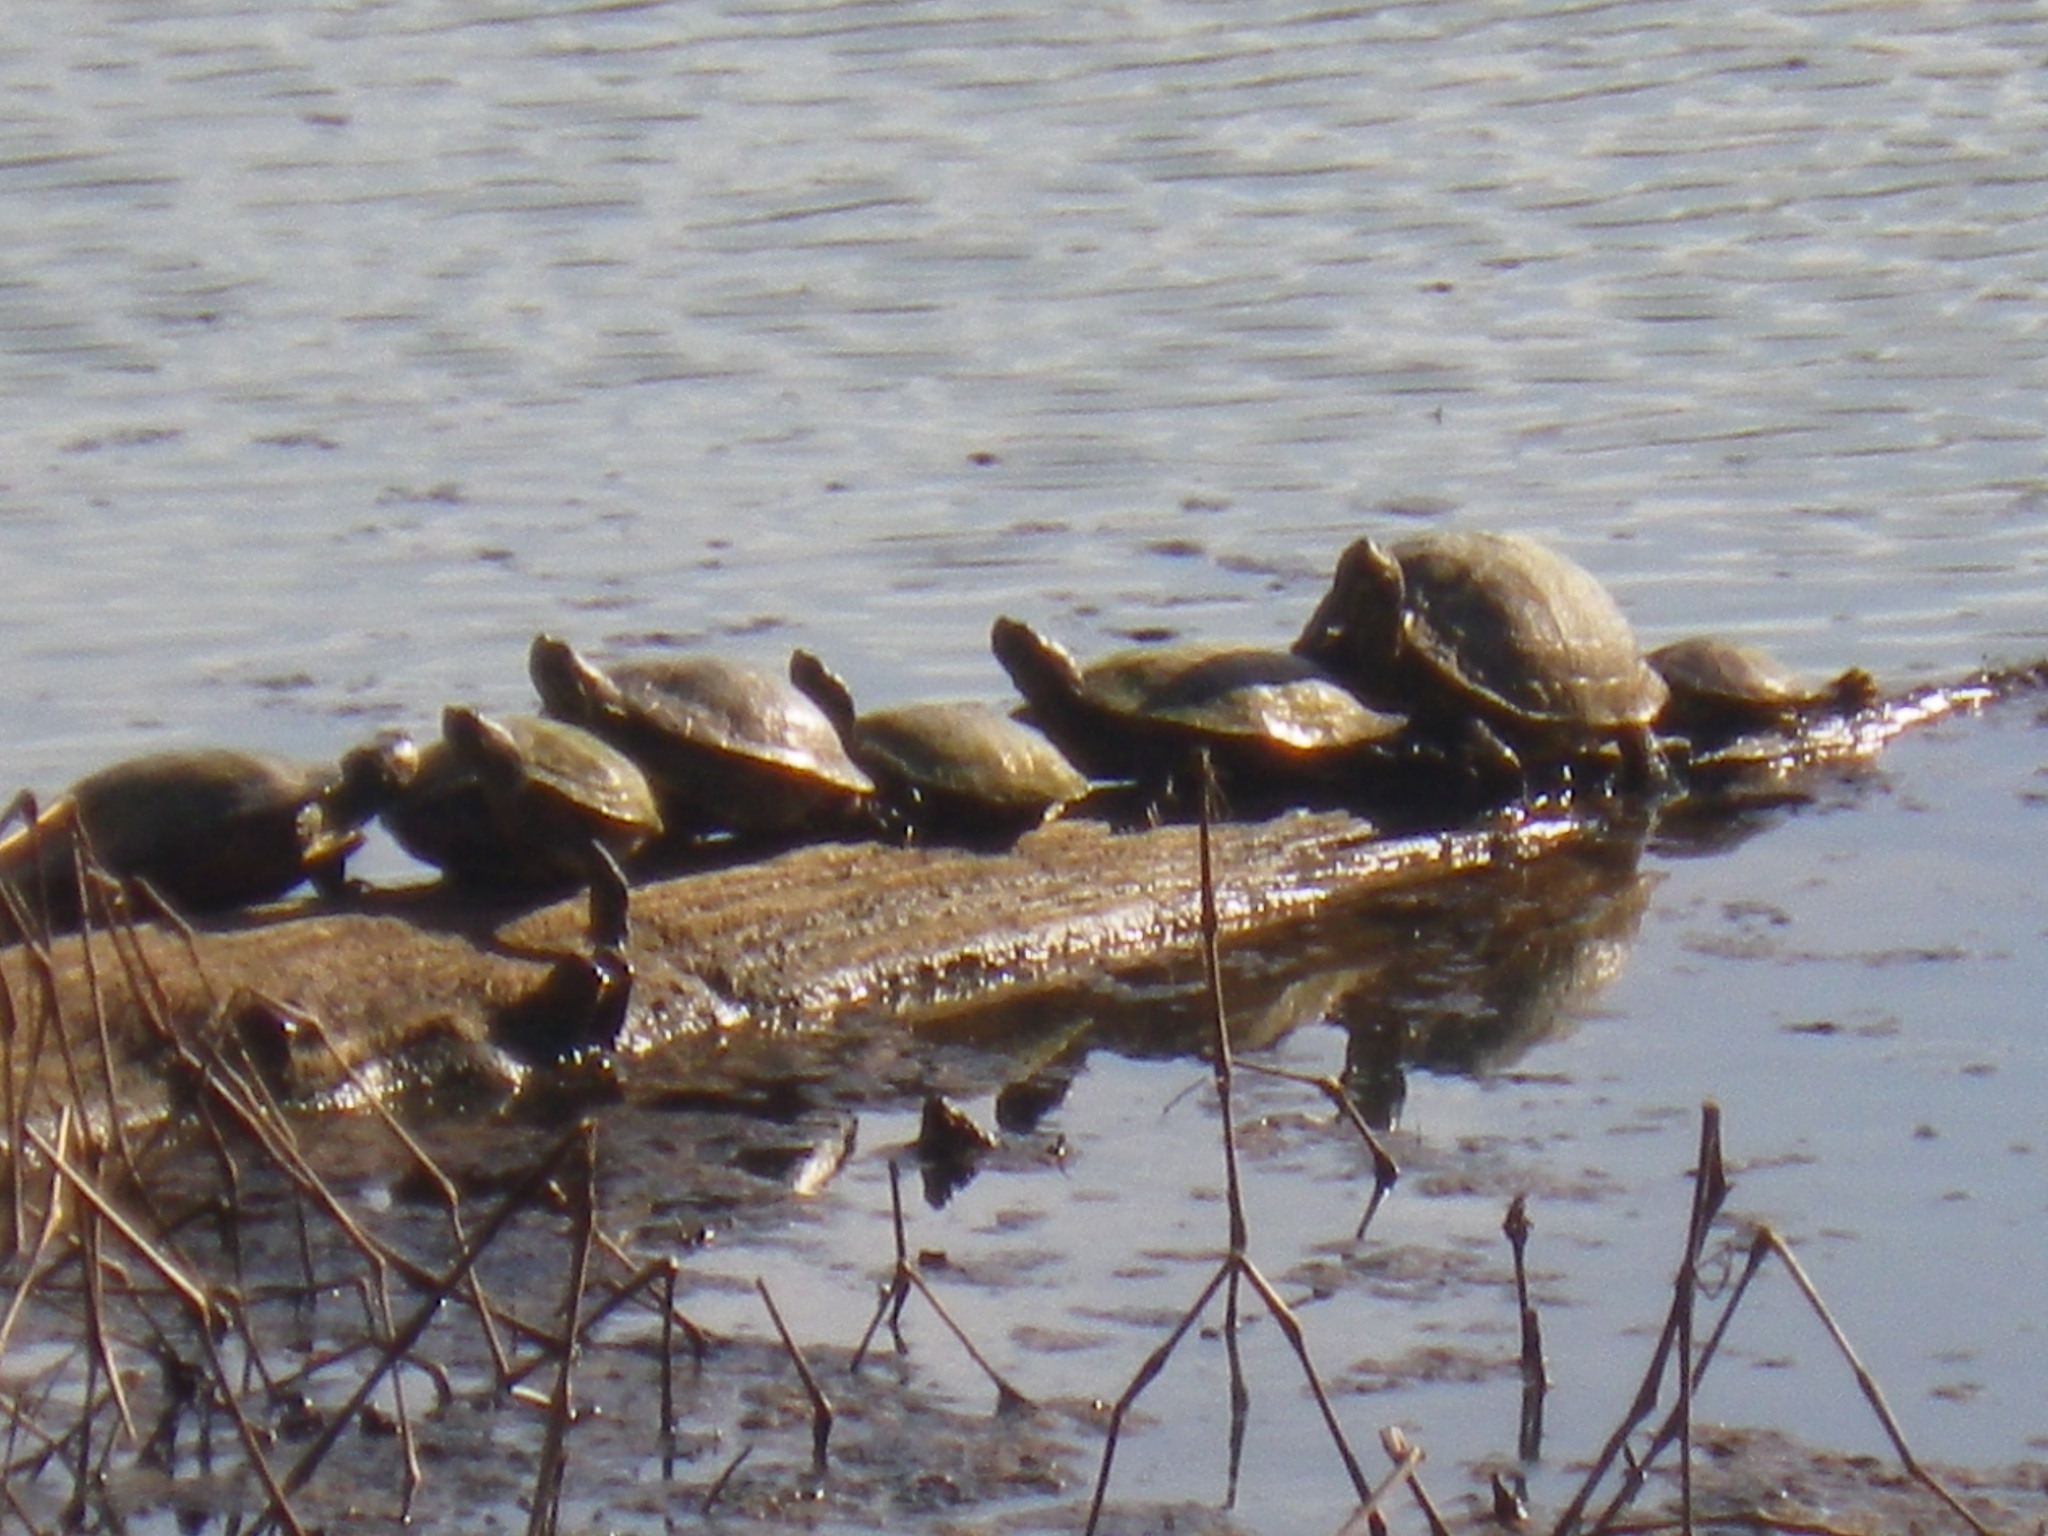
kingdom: Animalia
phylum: Chordata
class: Testudines
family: Emydidae
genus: Trachemys
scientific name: Trachemys scripta
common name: Slider
